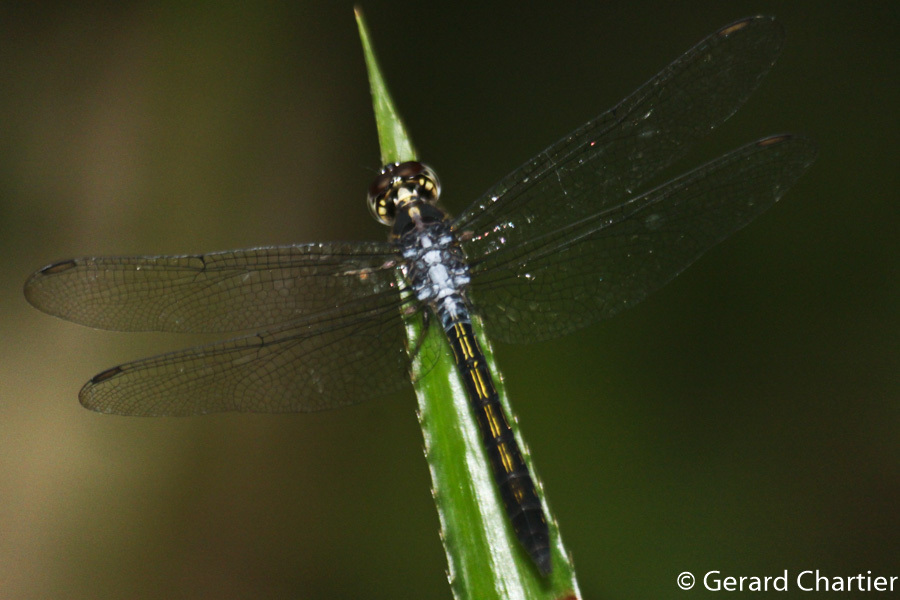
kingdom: Animalia
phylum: Arthropoda
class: Insecta
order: Odonata
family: Libellulidae
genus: Cratilla
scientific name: Cratilla lineata
